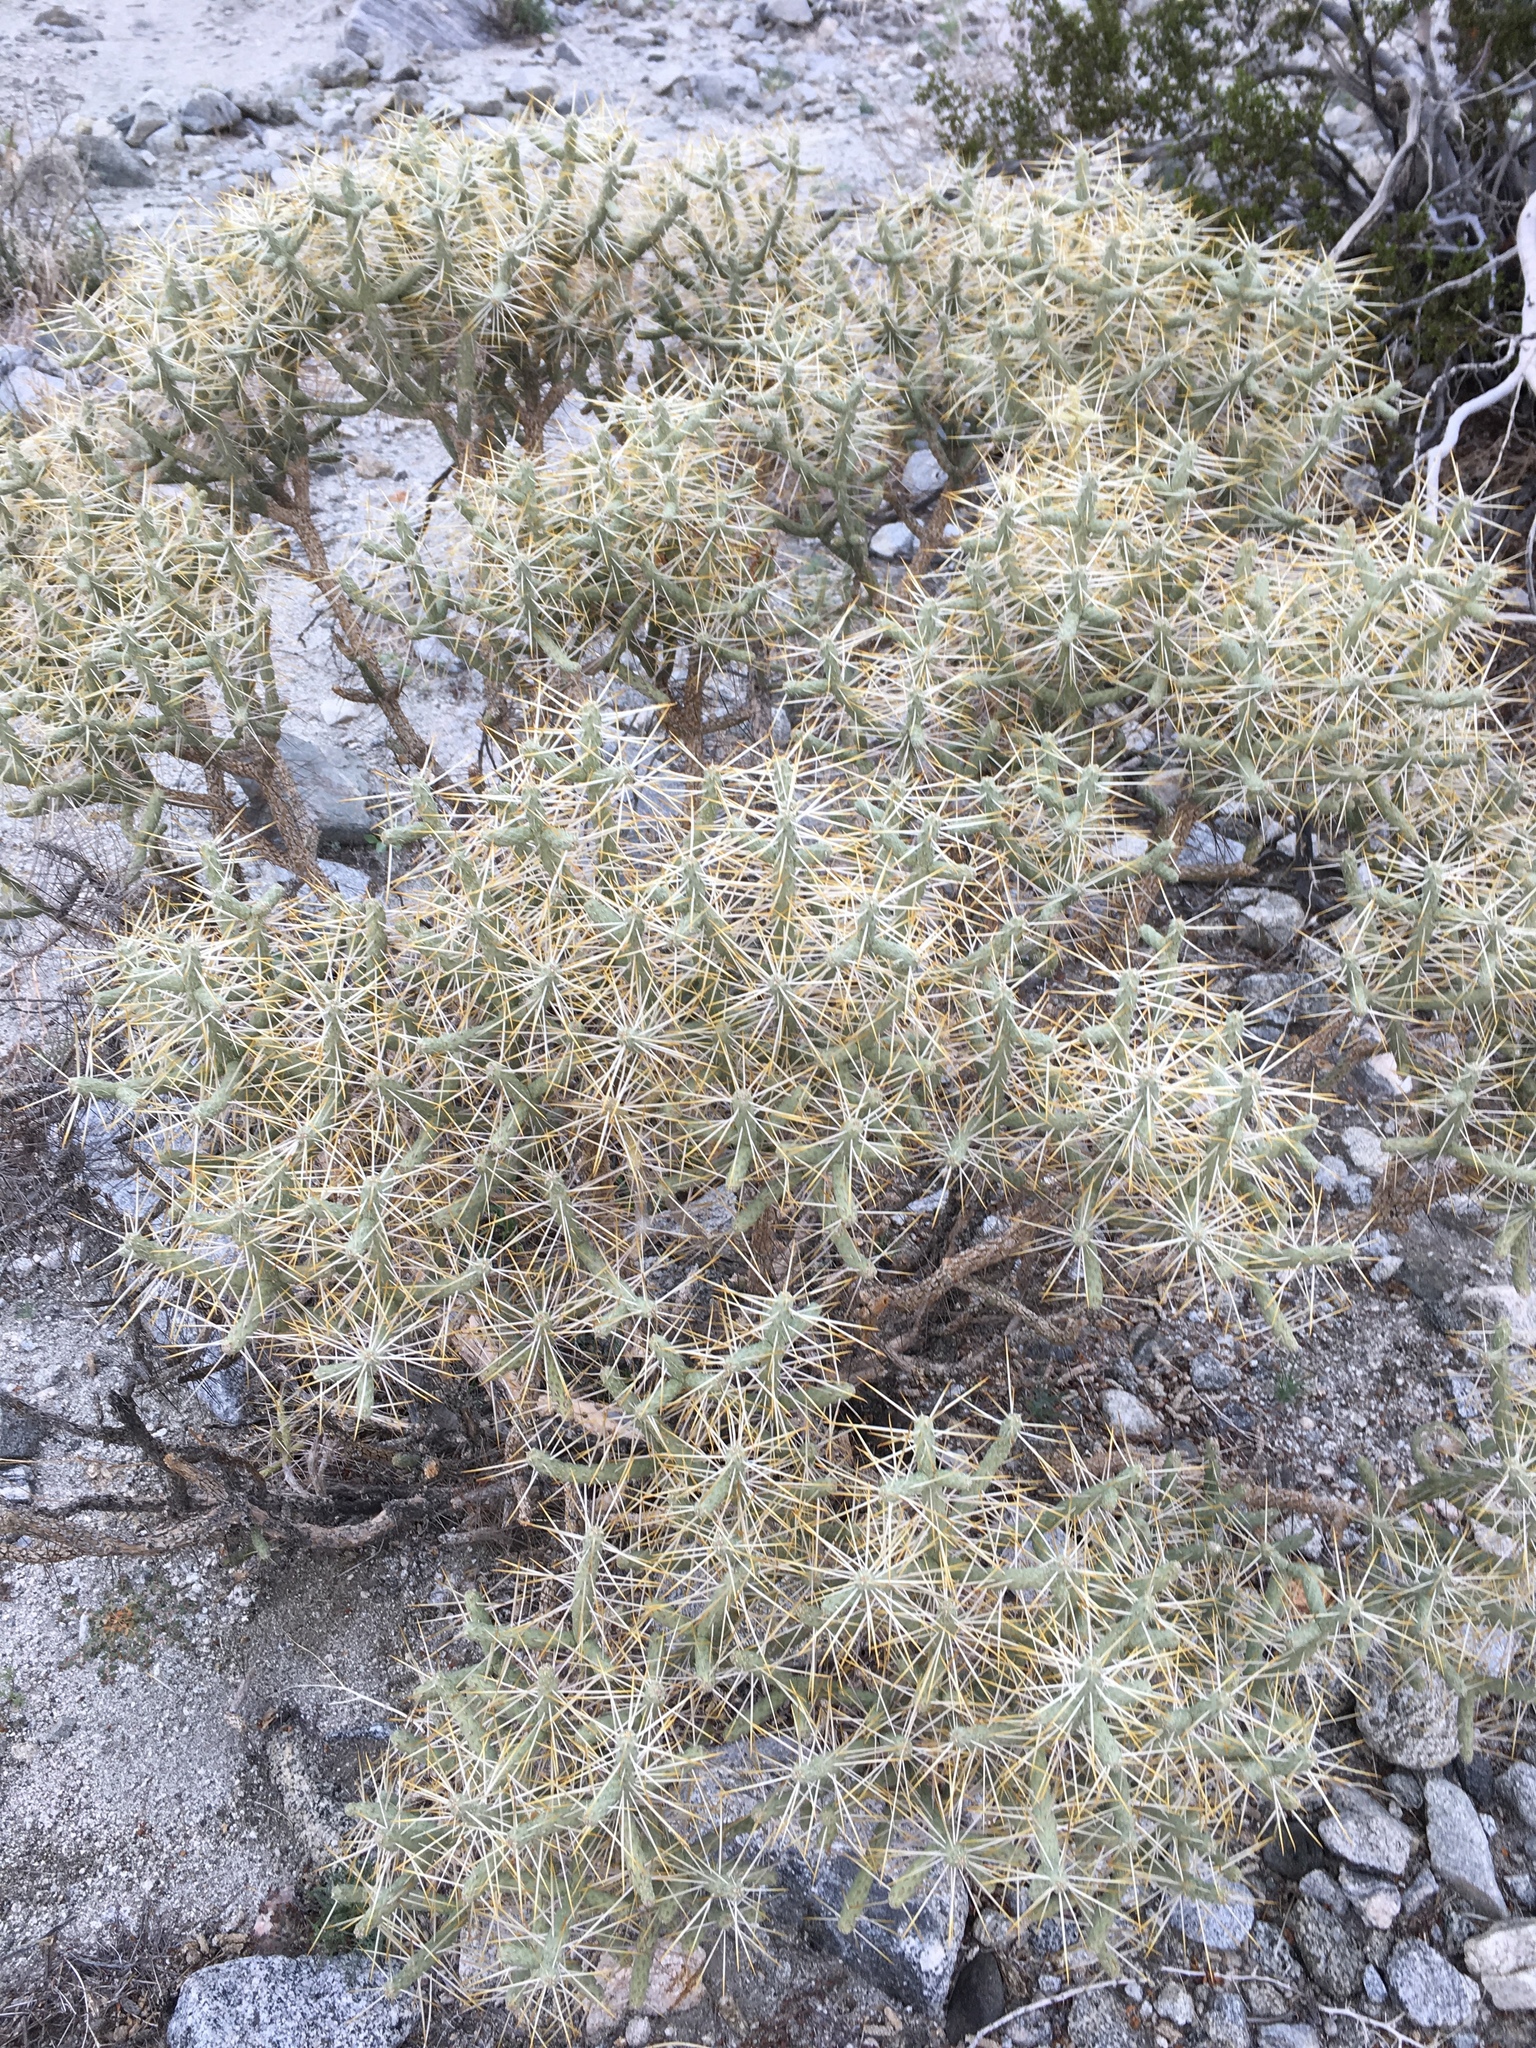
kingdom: Plantae
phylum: Tracheophyta
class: Magnoliopsida
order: Caryophyllales
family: Cactaceae
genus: Cylindropuntia
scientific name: Cylindropuntia ramosissima
